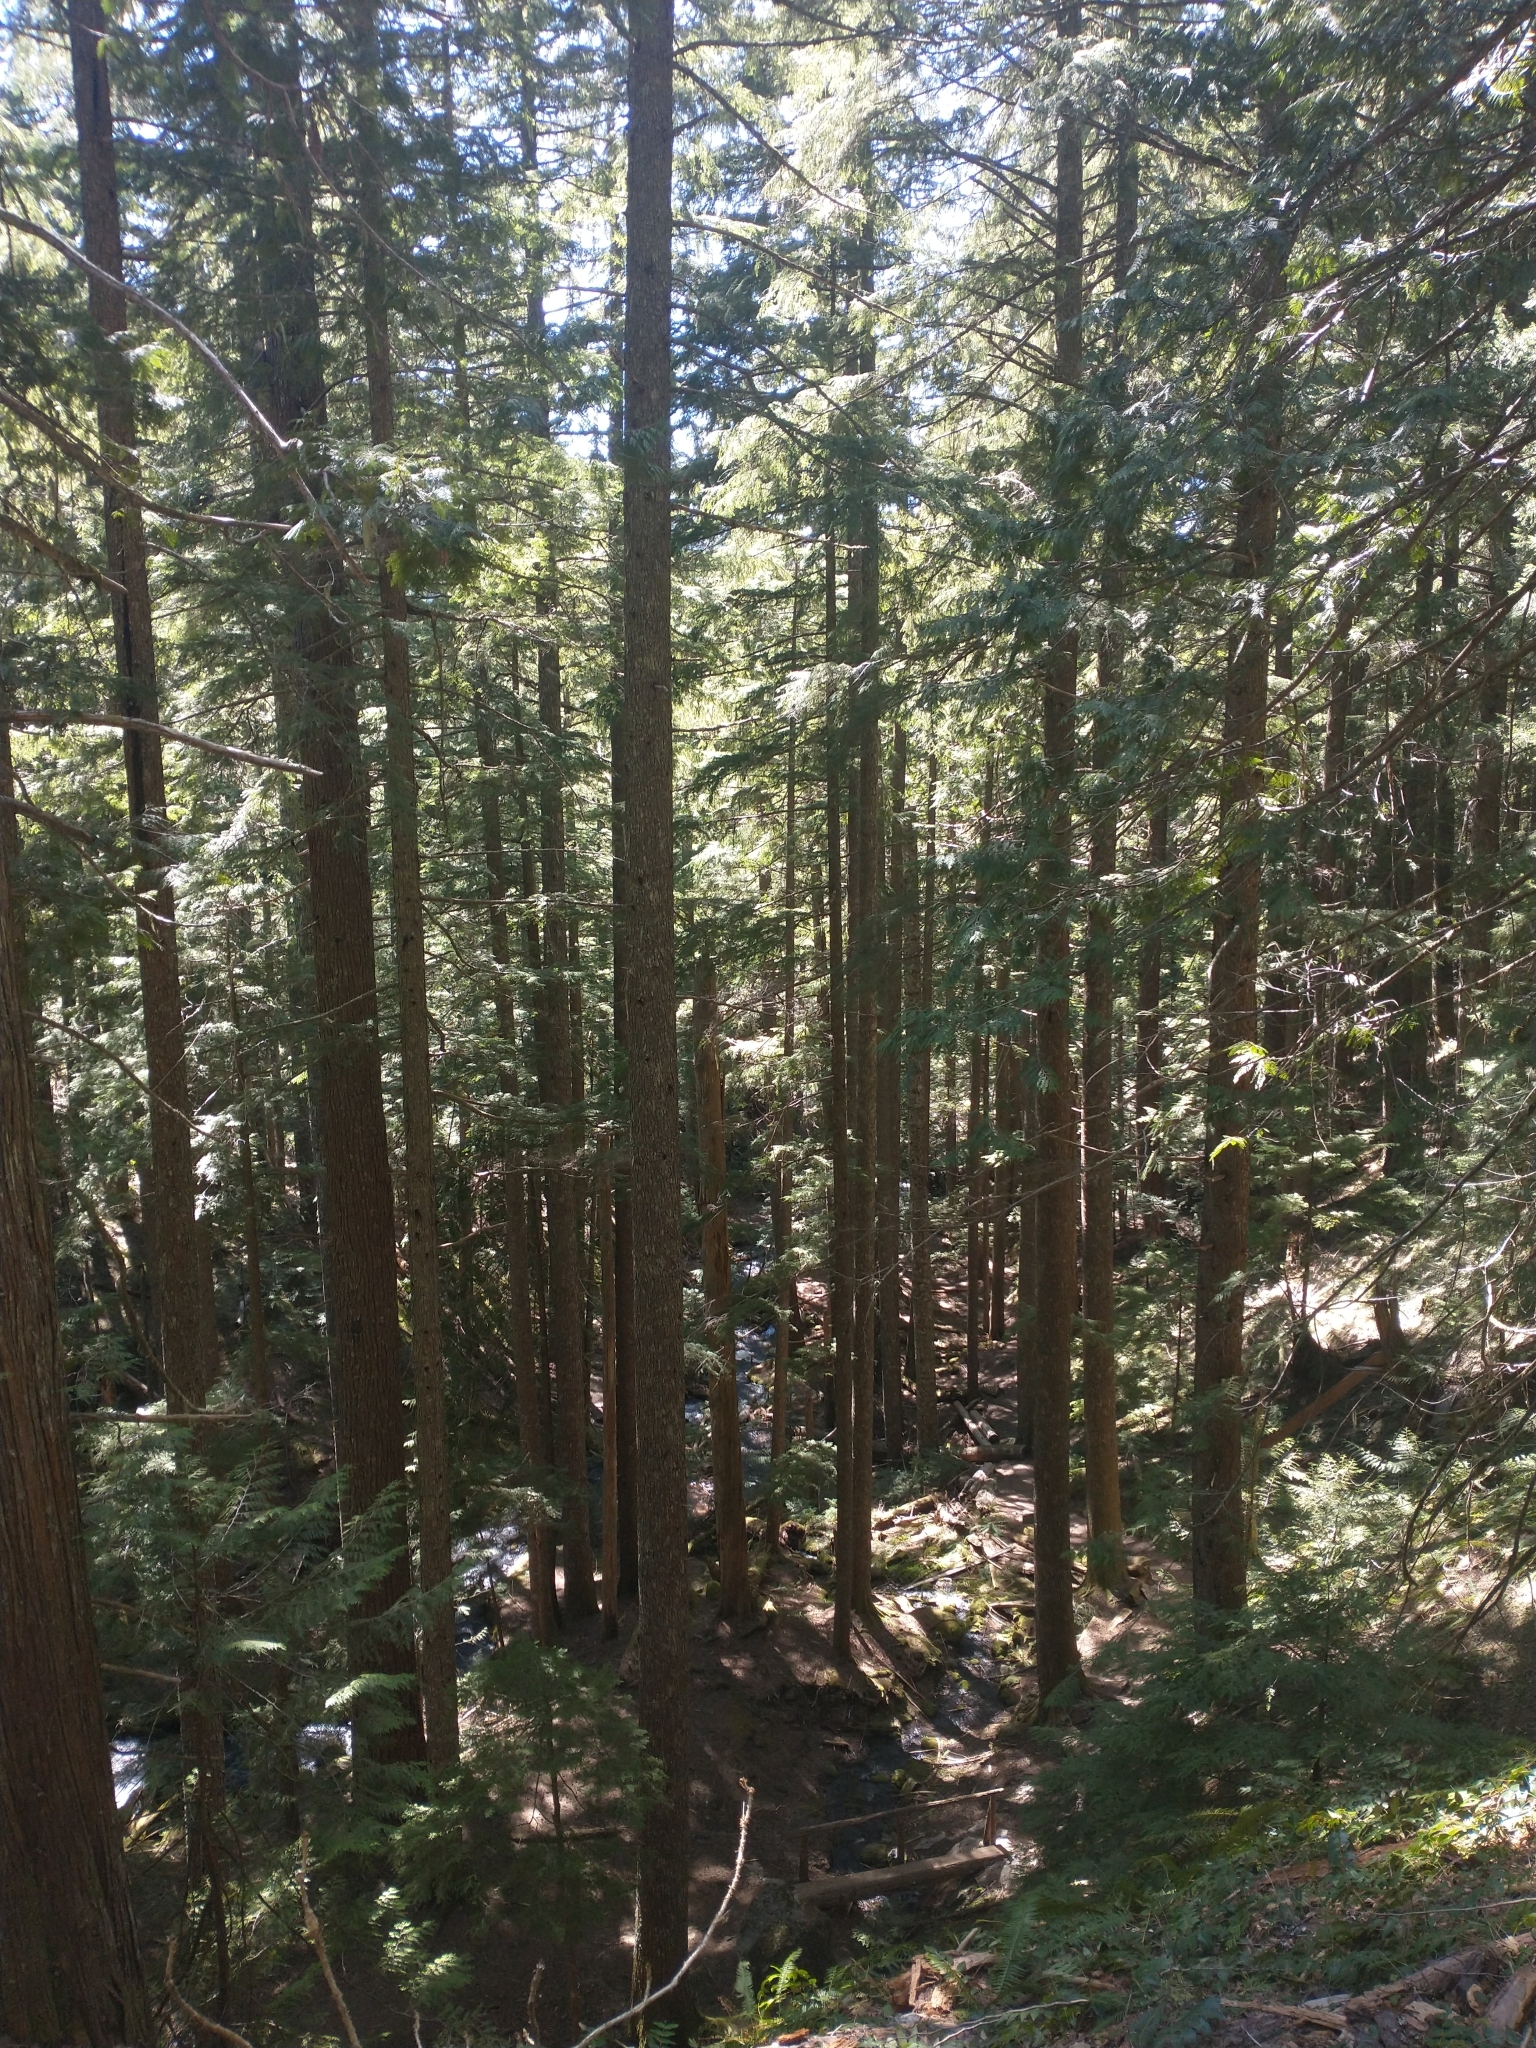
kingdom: Plantae
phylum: Tracheophyta
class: Pinopsida
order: Pinales
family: Pinaceae
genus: Tsuga
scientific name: Tsuga heterophylla
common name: Western hemlock
